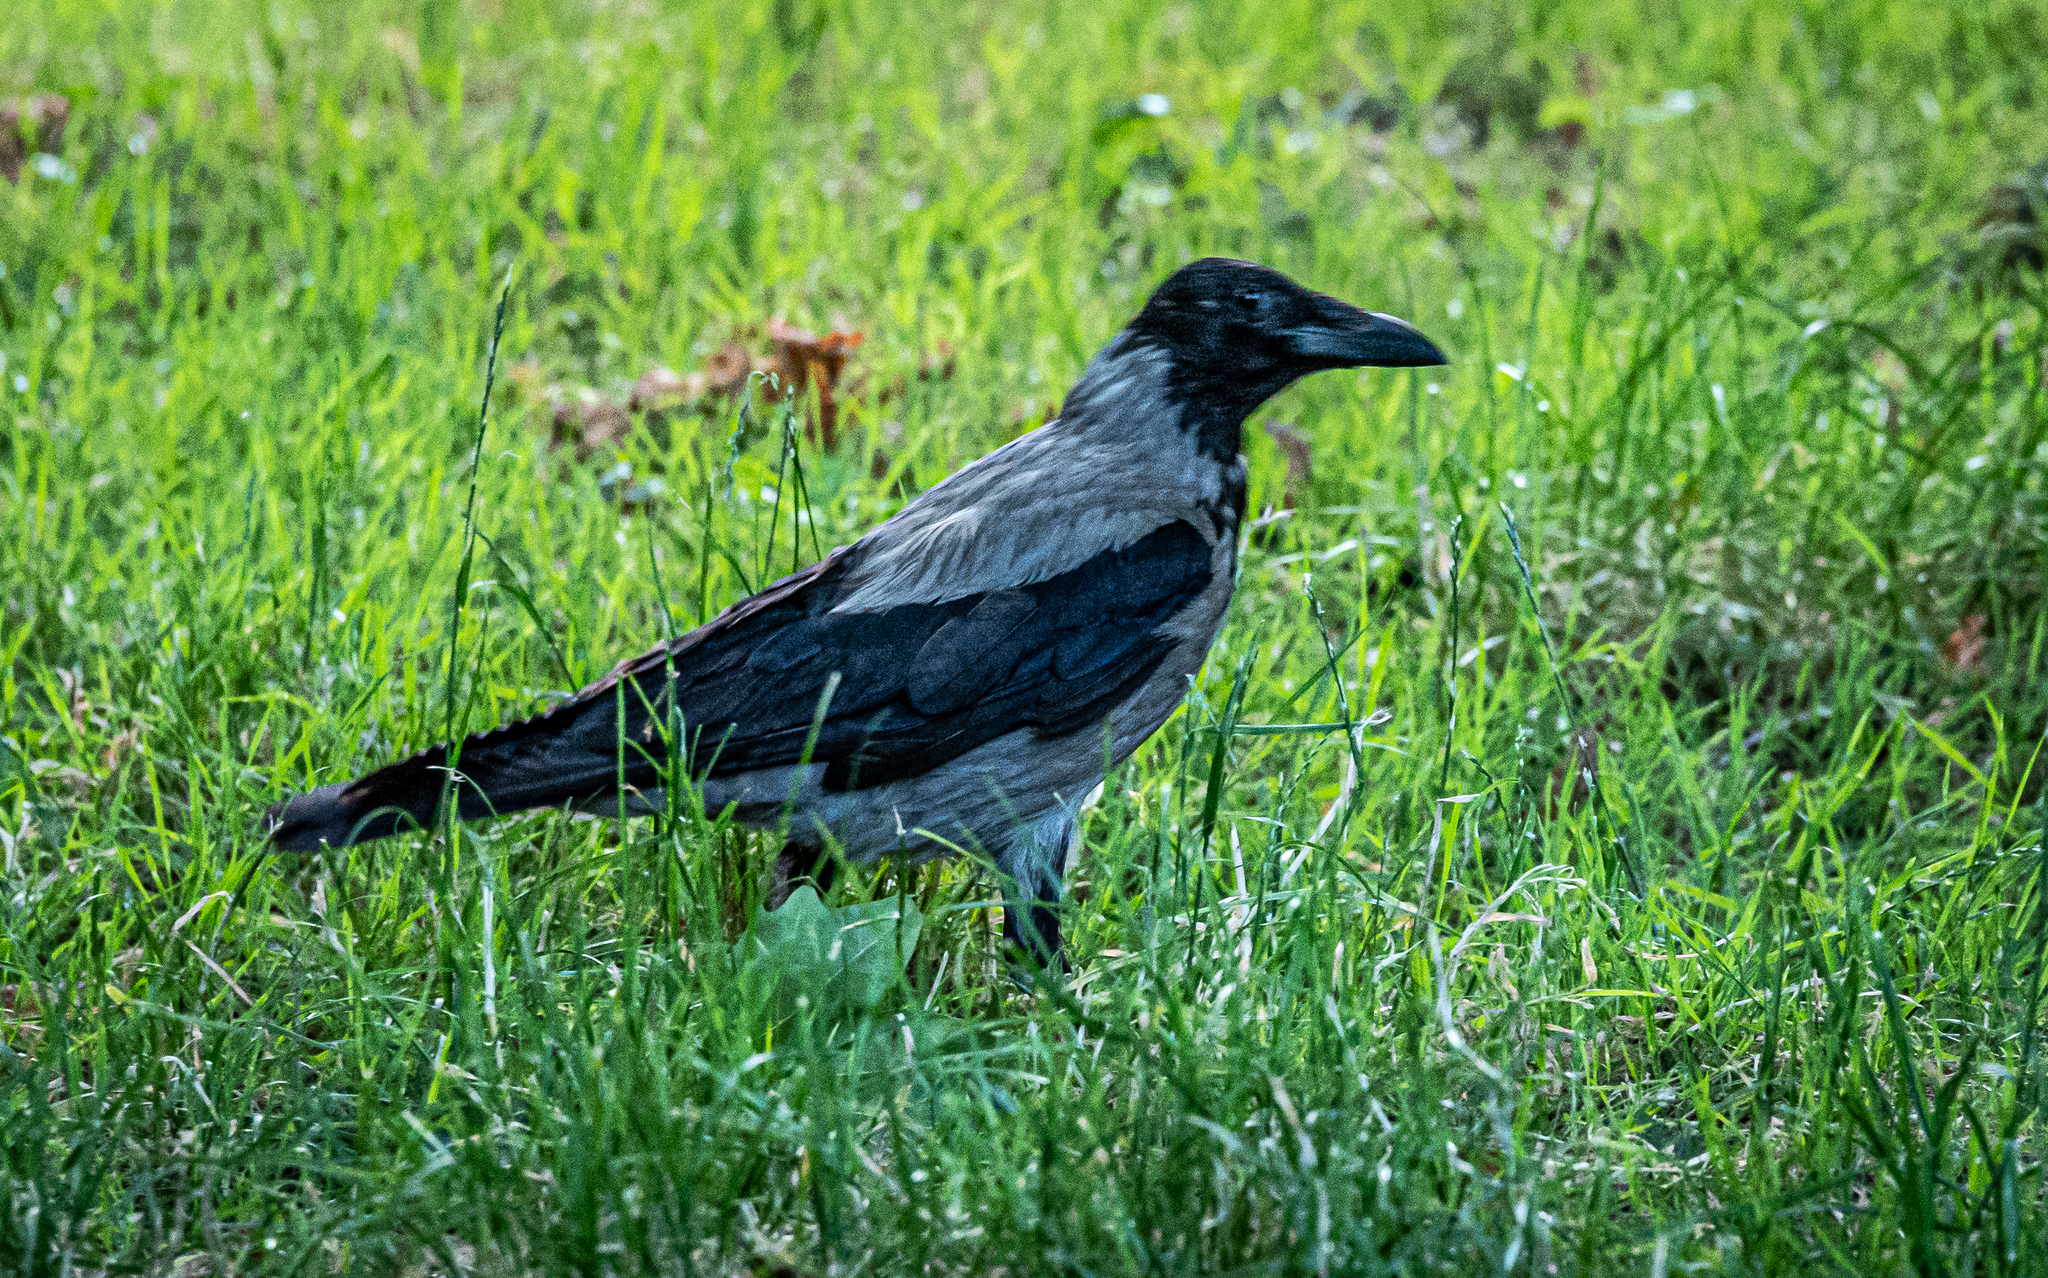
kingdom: Animalia
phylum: Chordata
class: Aves
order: Passeriformes
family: Corvidae
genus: Corvus
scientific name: Corvus cornix
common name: Hooded crow
